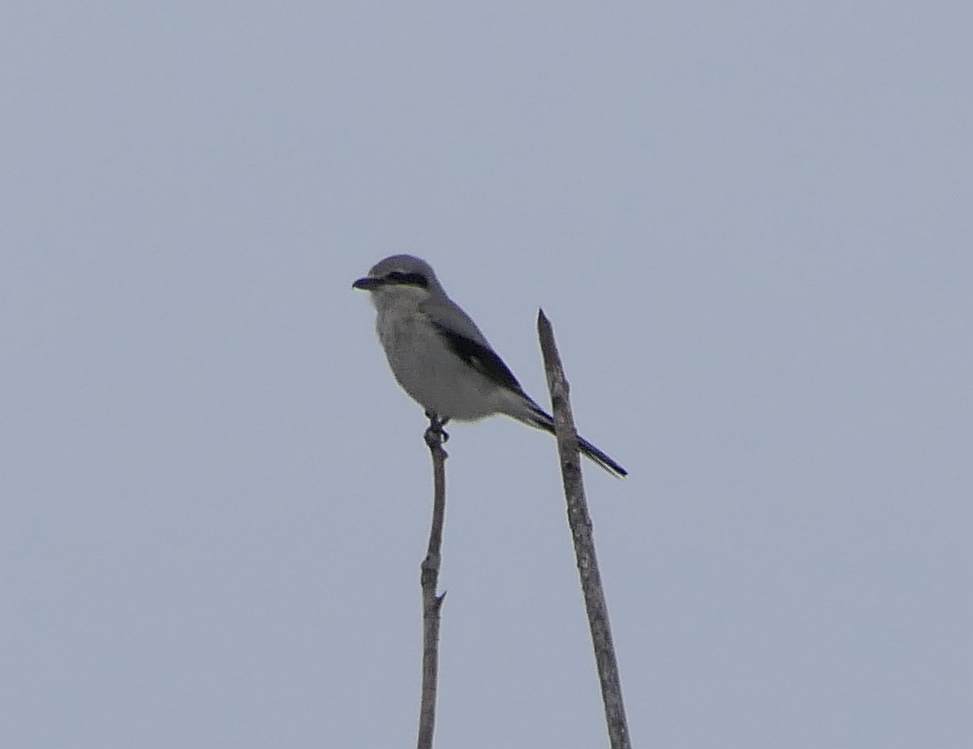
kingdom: Animalia
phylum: Chordata
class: Aves
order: Passeriformes
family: Laniidae
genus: Lanius
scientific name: Lanius borealis
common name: Northern shrike
